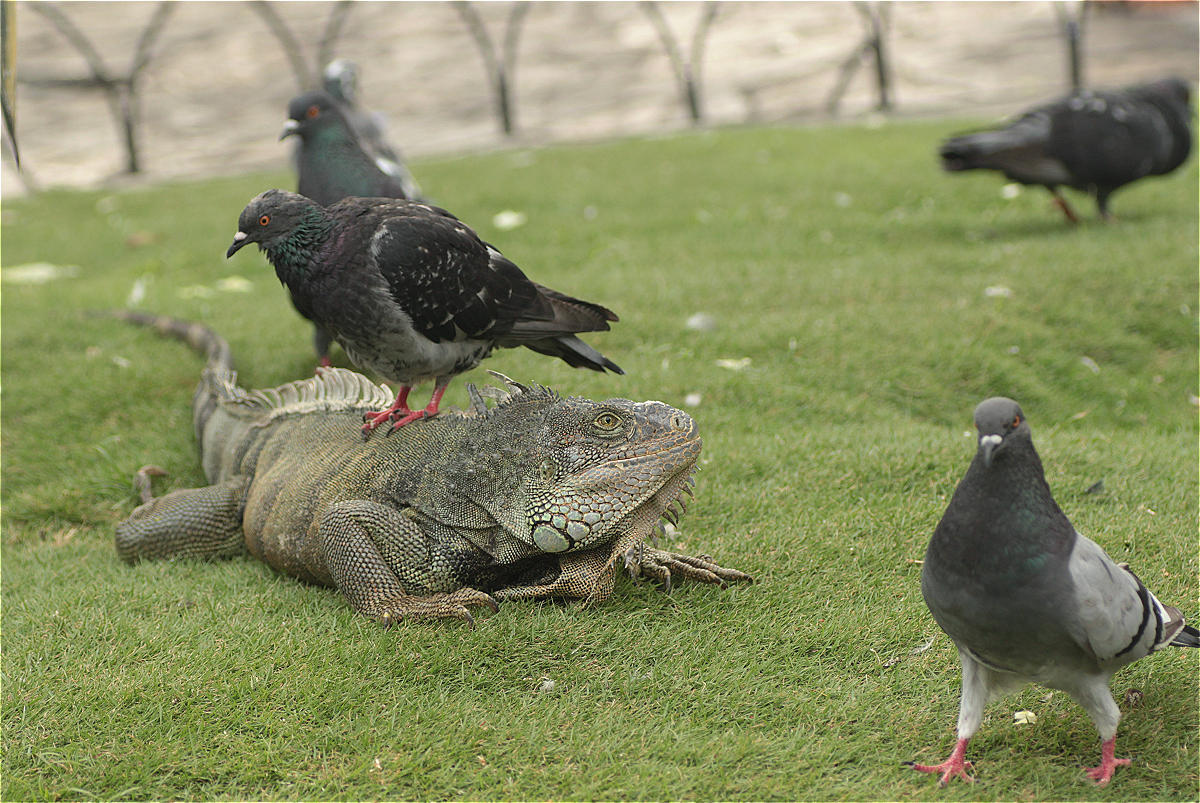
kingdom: Animalia
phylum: Chordata
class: Aves
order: Columbiformes
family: Columbidae
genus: Columba
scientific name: Columba livia
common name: Rock pigeon
